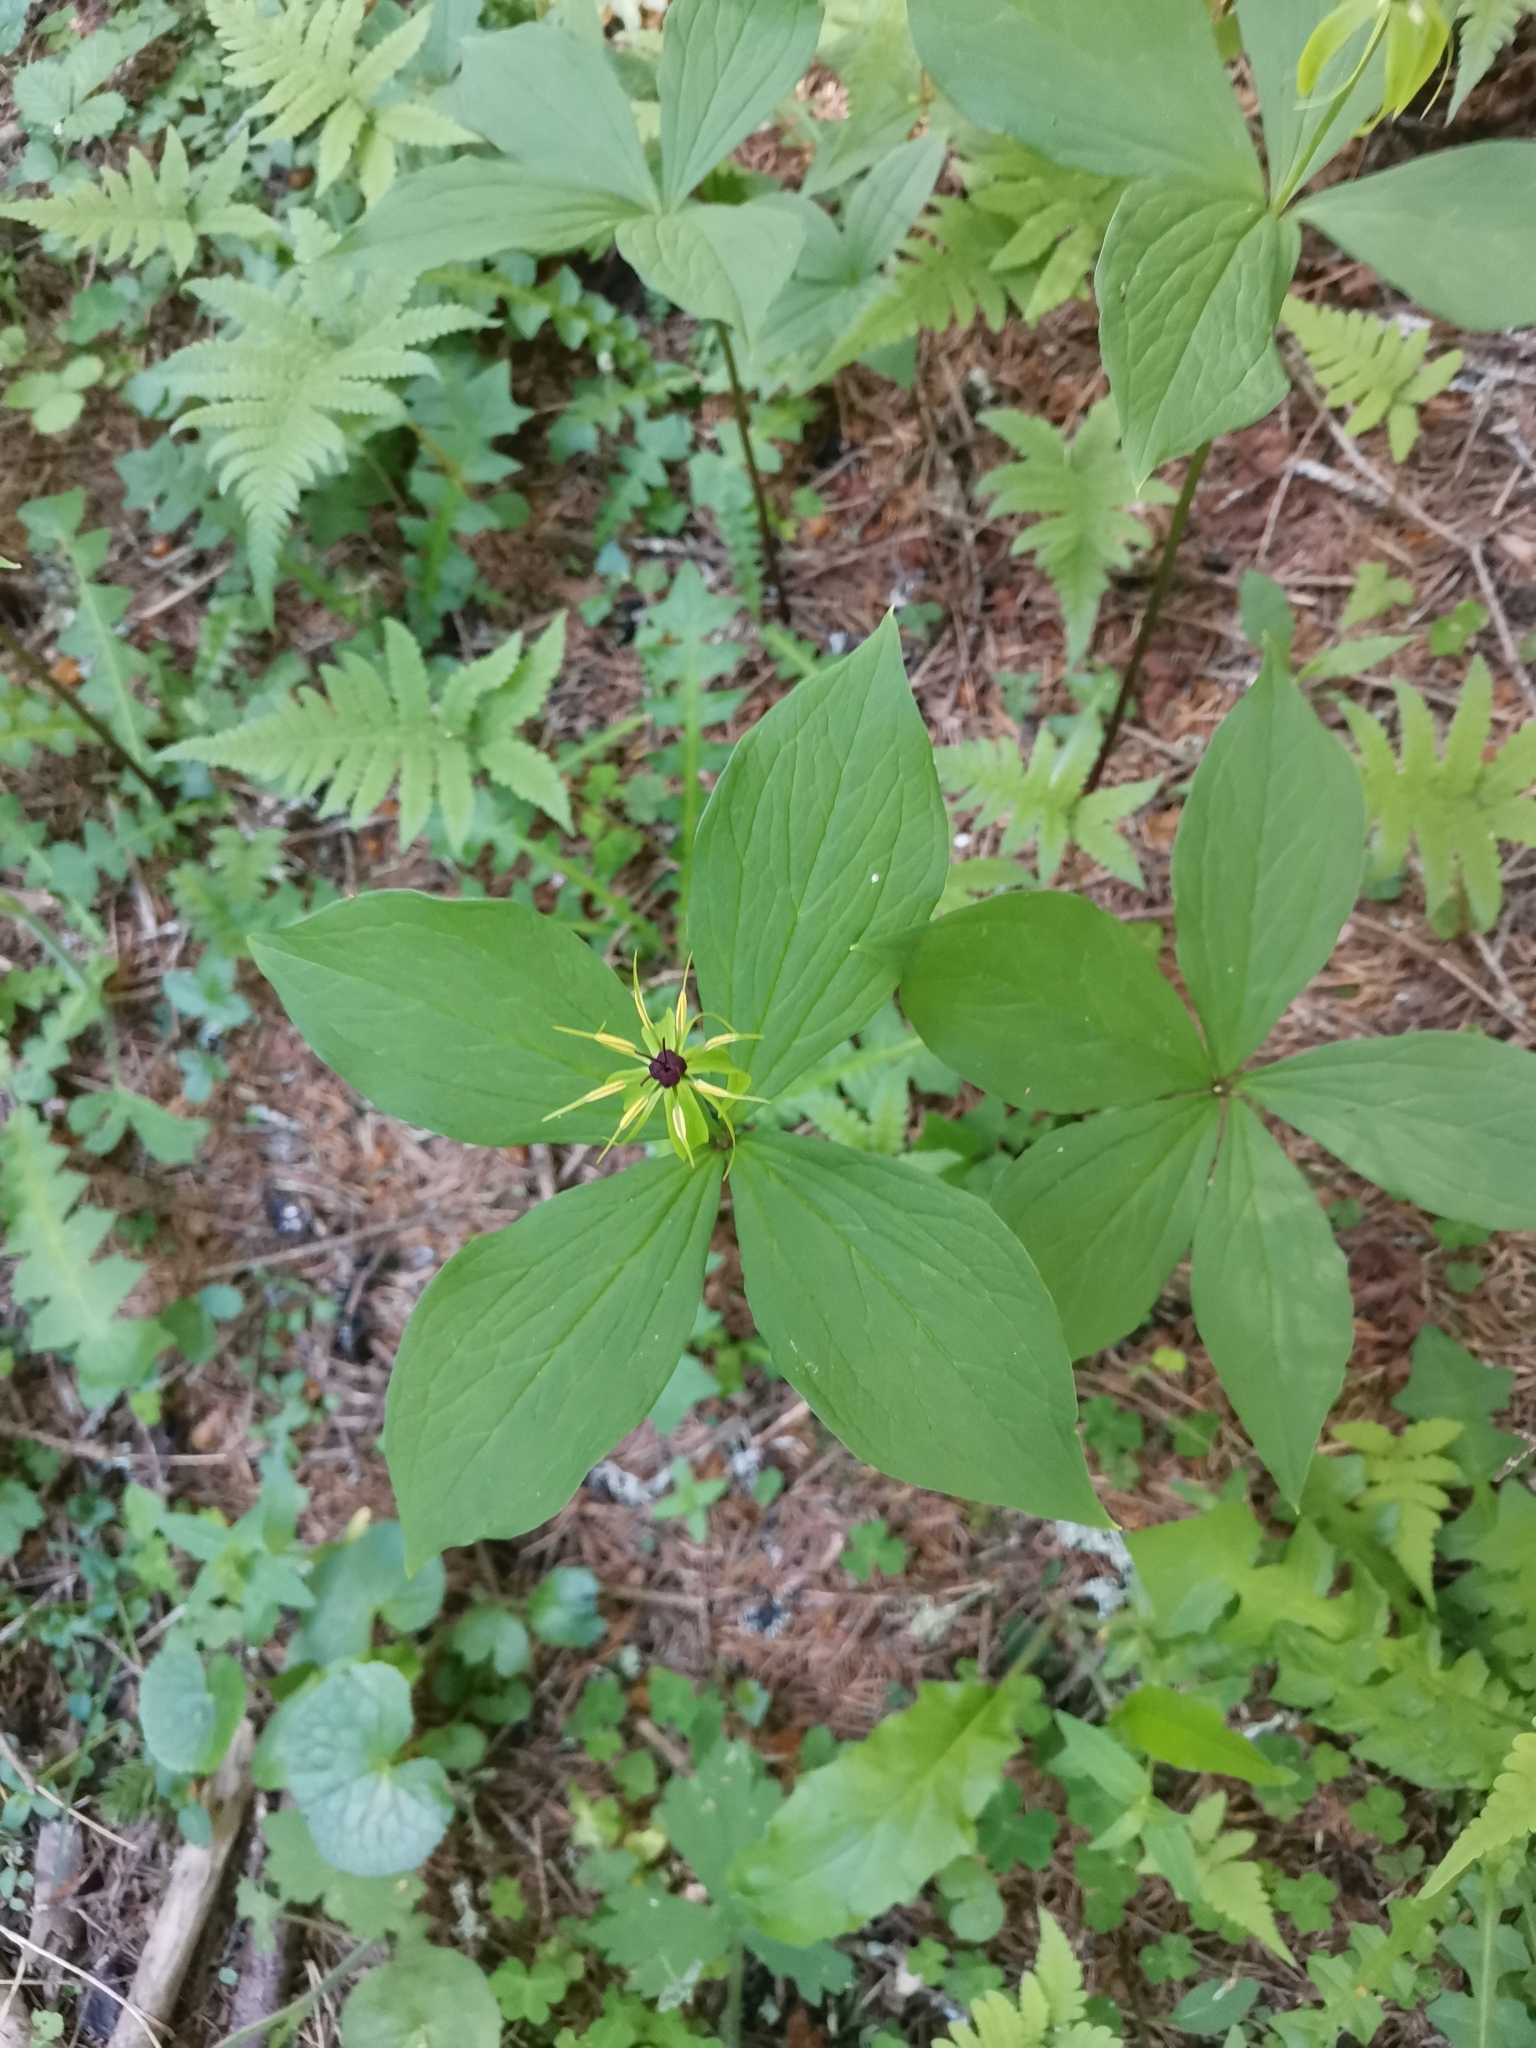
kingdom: Plantae
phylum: Tracheophyta
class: Liliopsida
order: Liliales
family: Melanthiaceae
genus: Paris
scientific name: Paris quadrifolia
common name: Herb-paris
